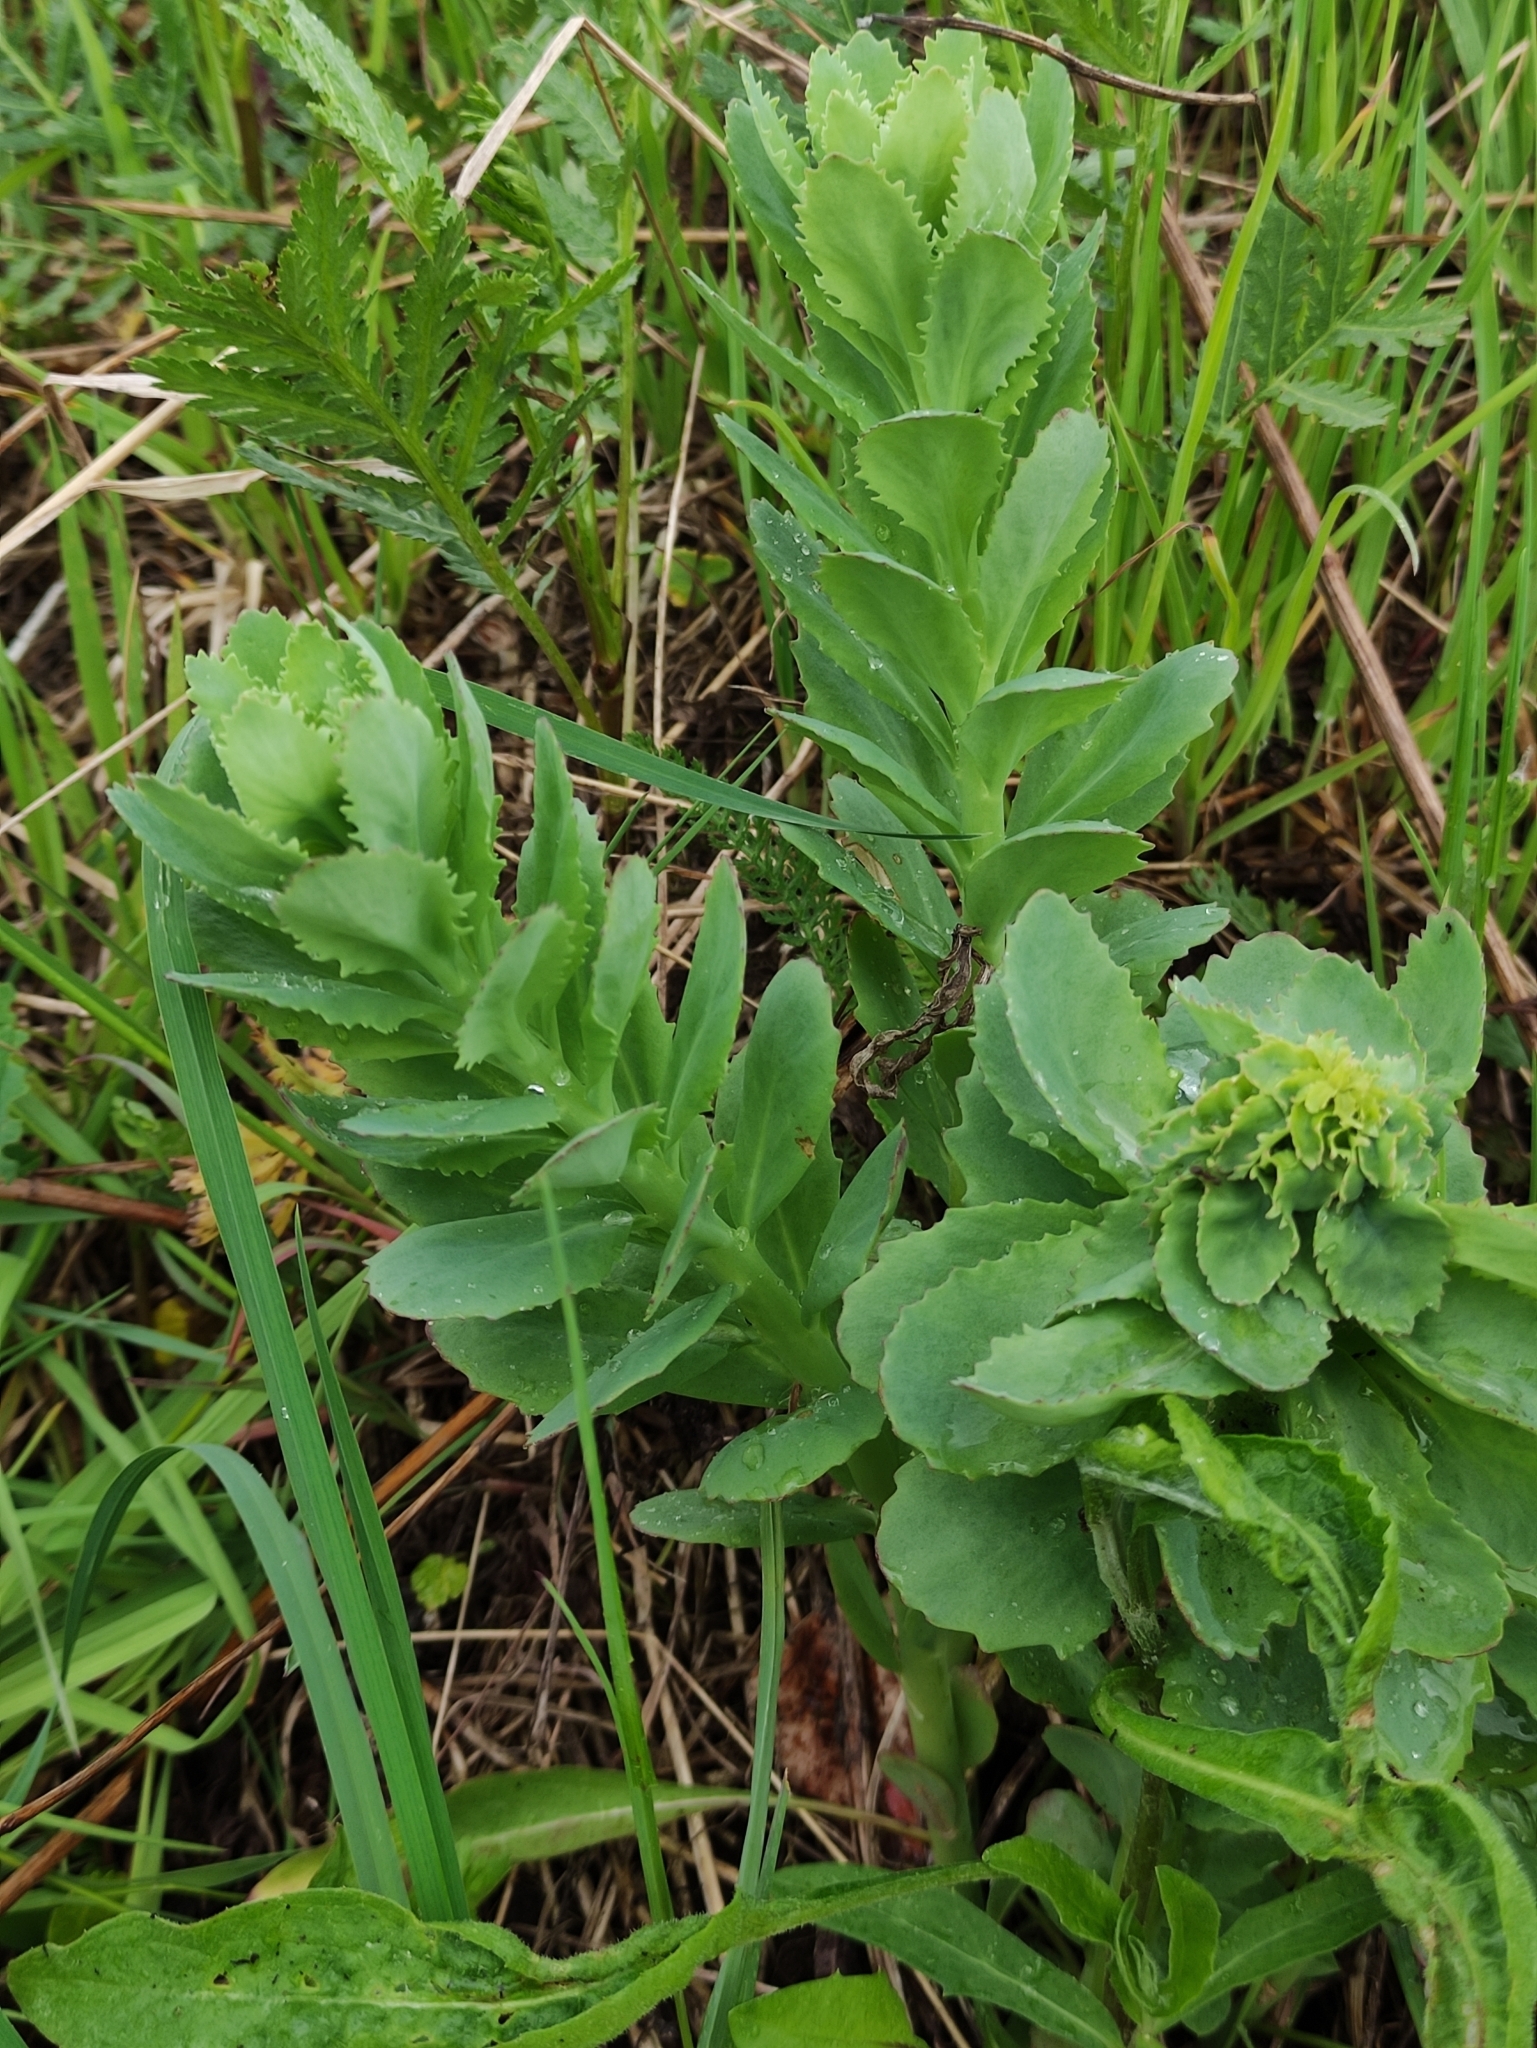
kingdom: Plantae
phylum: Tracheophyta
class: Magnoliopsida
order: Saxifragales
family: Crassulaceae
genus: Hylotelephium
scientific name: Hylotelephium telephium
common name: Live-forever
